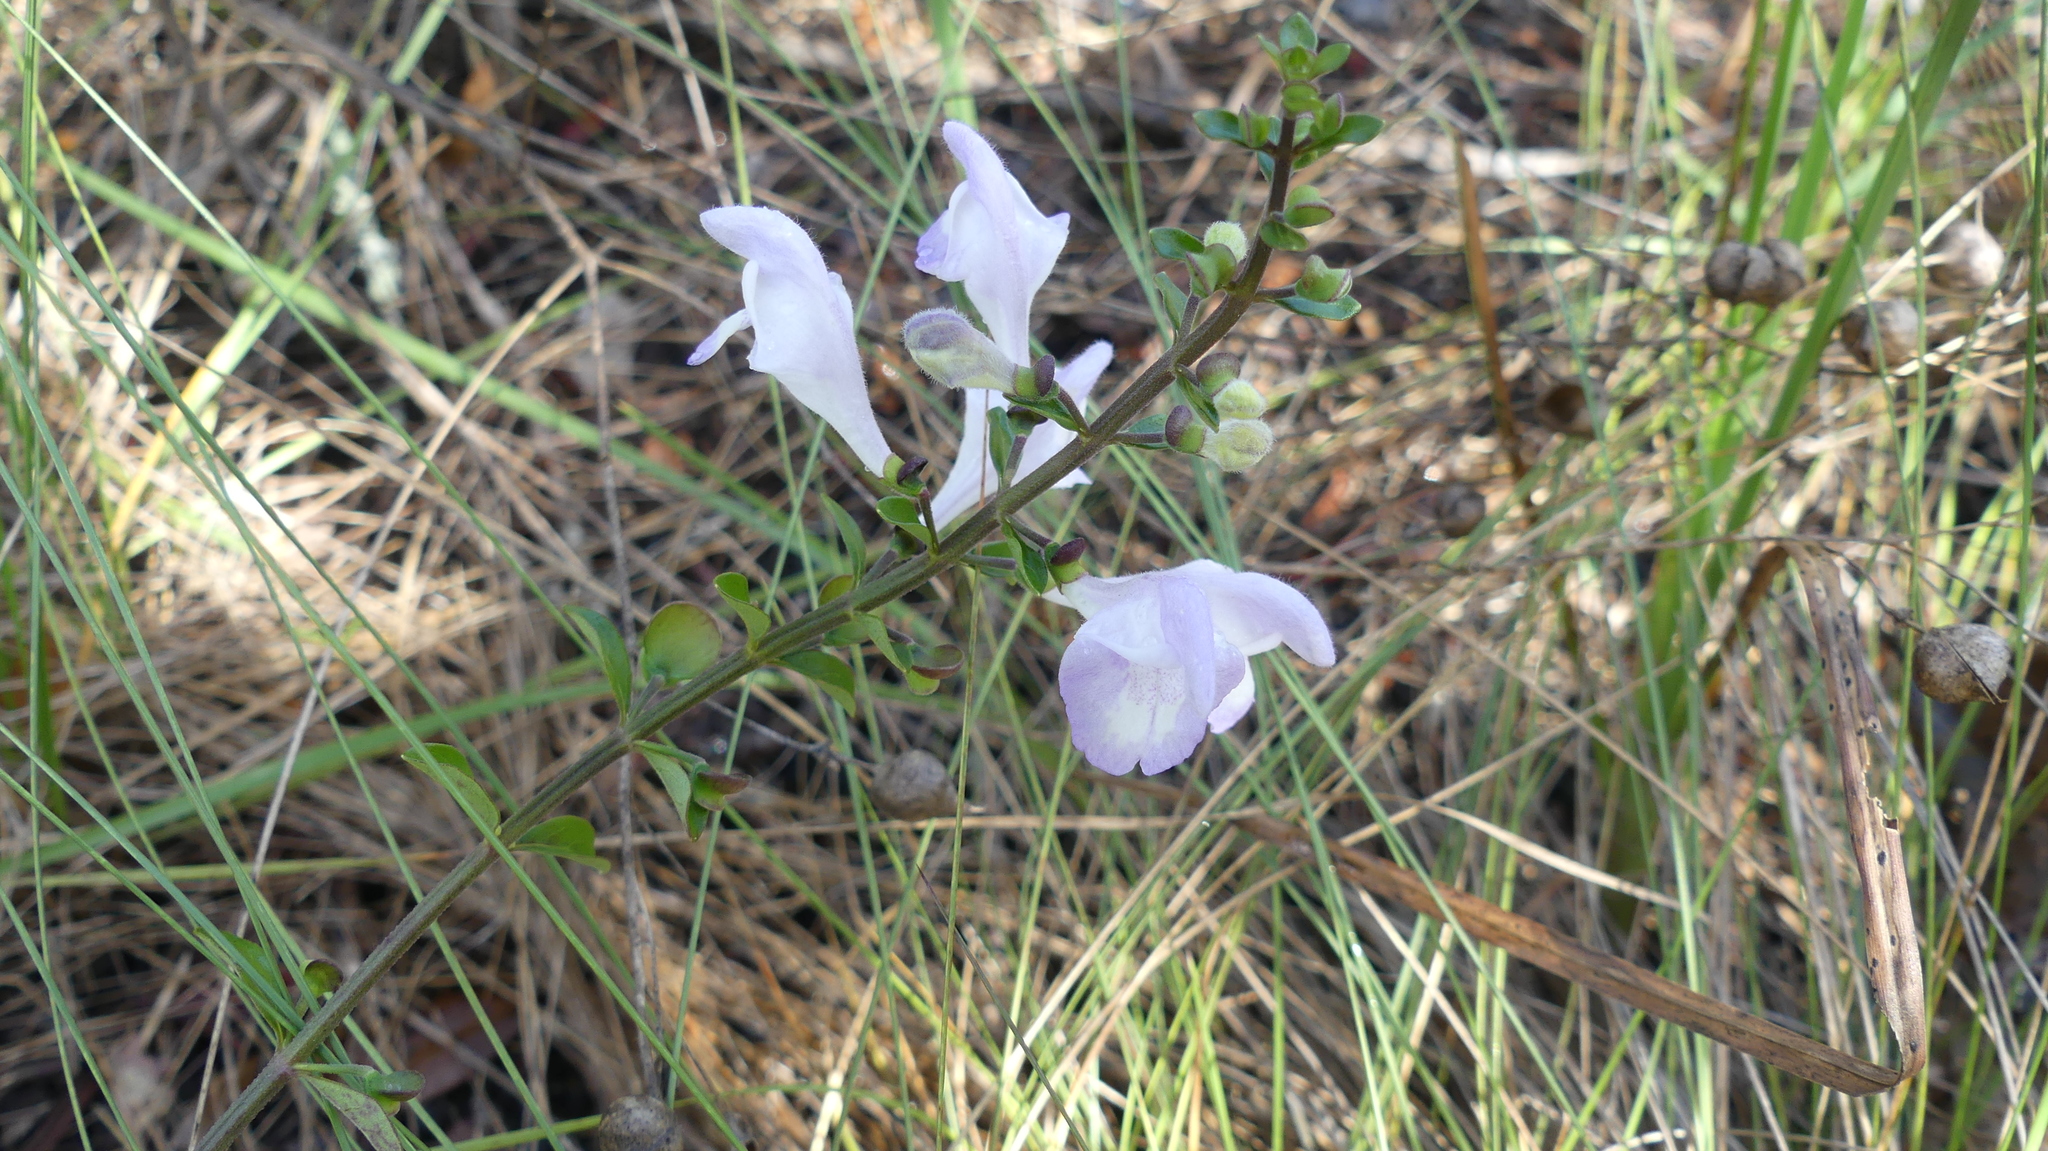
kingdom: Plantae
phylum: Tracheophyta
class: Magnoliopsida
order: Lamiales
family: Lamiaceae
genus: Scutellaria
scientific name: Scutellaria arenicola
